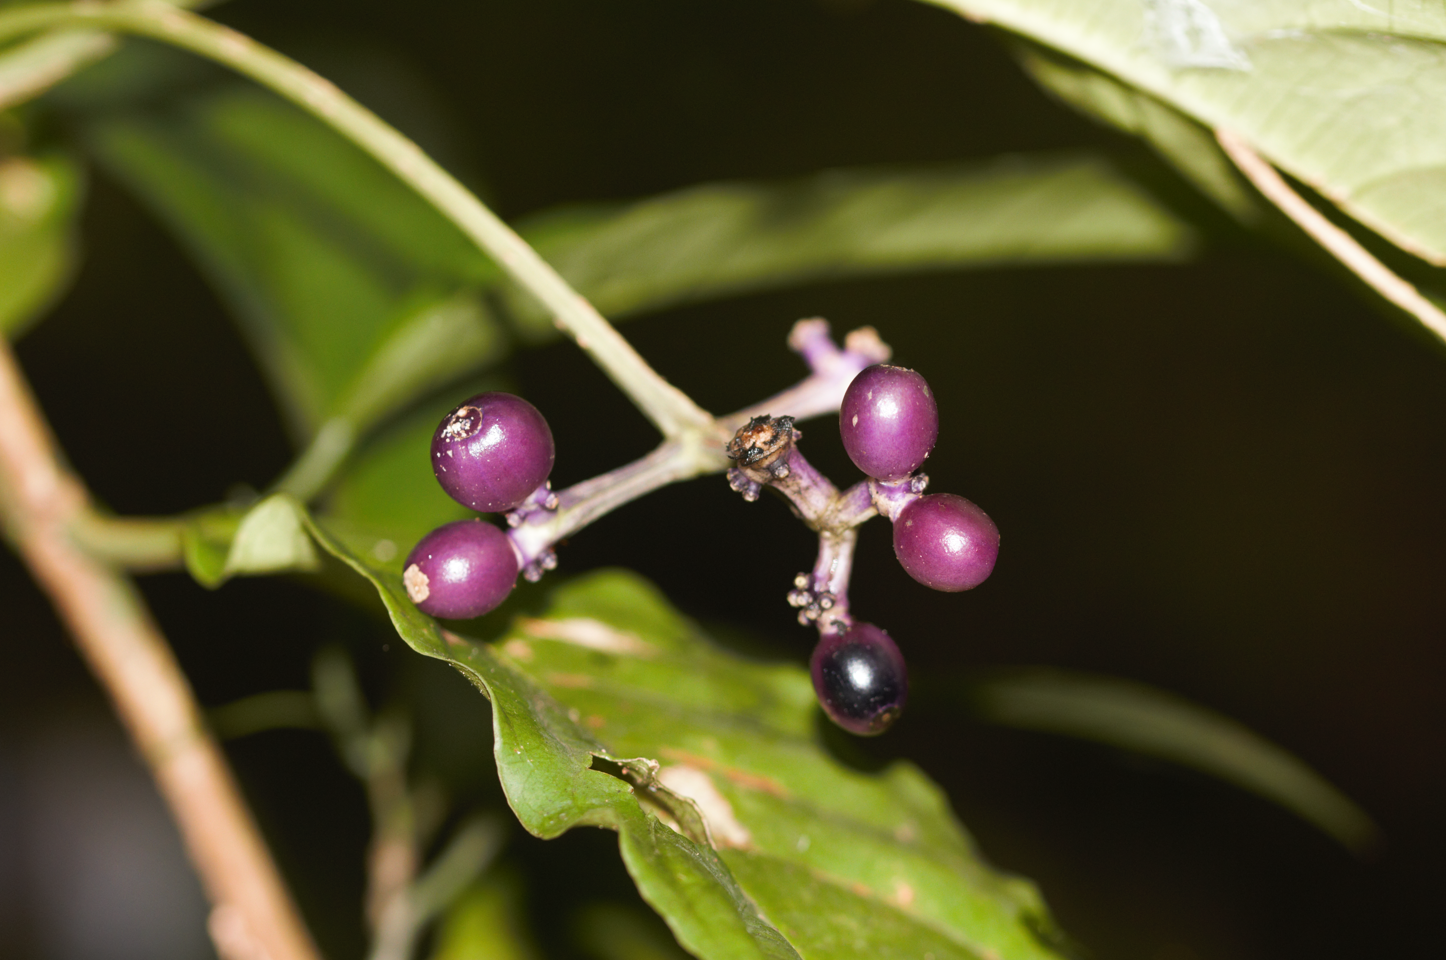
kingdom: Plantae
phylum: Tracheophyta
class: Magnoliopsida
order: Gentianales
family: Rubiaceae
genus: Rudgea
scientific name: Rudgea stipulacea
